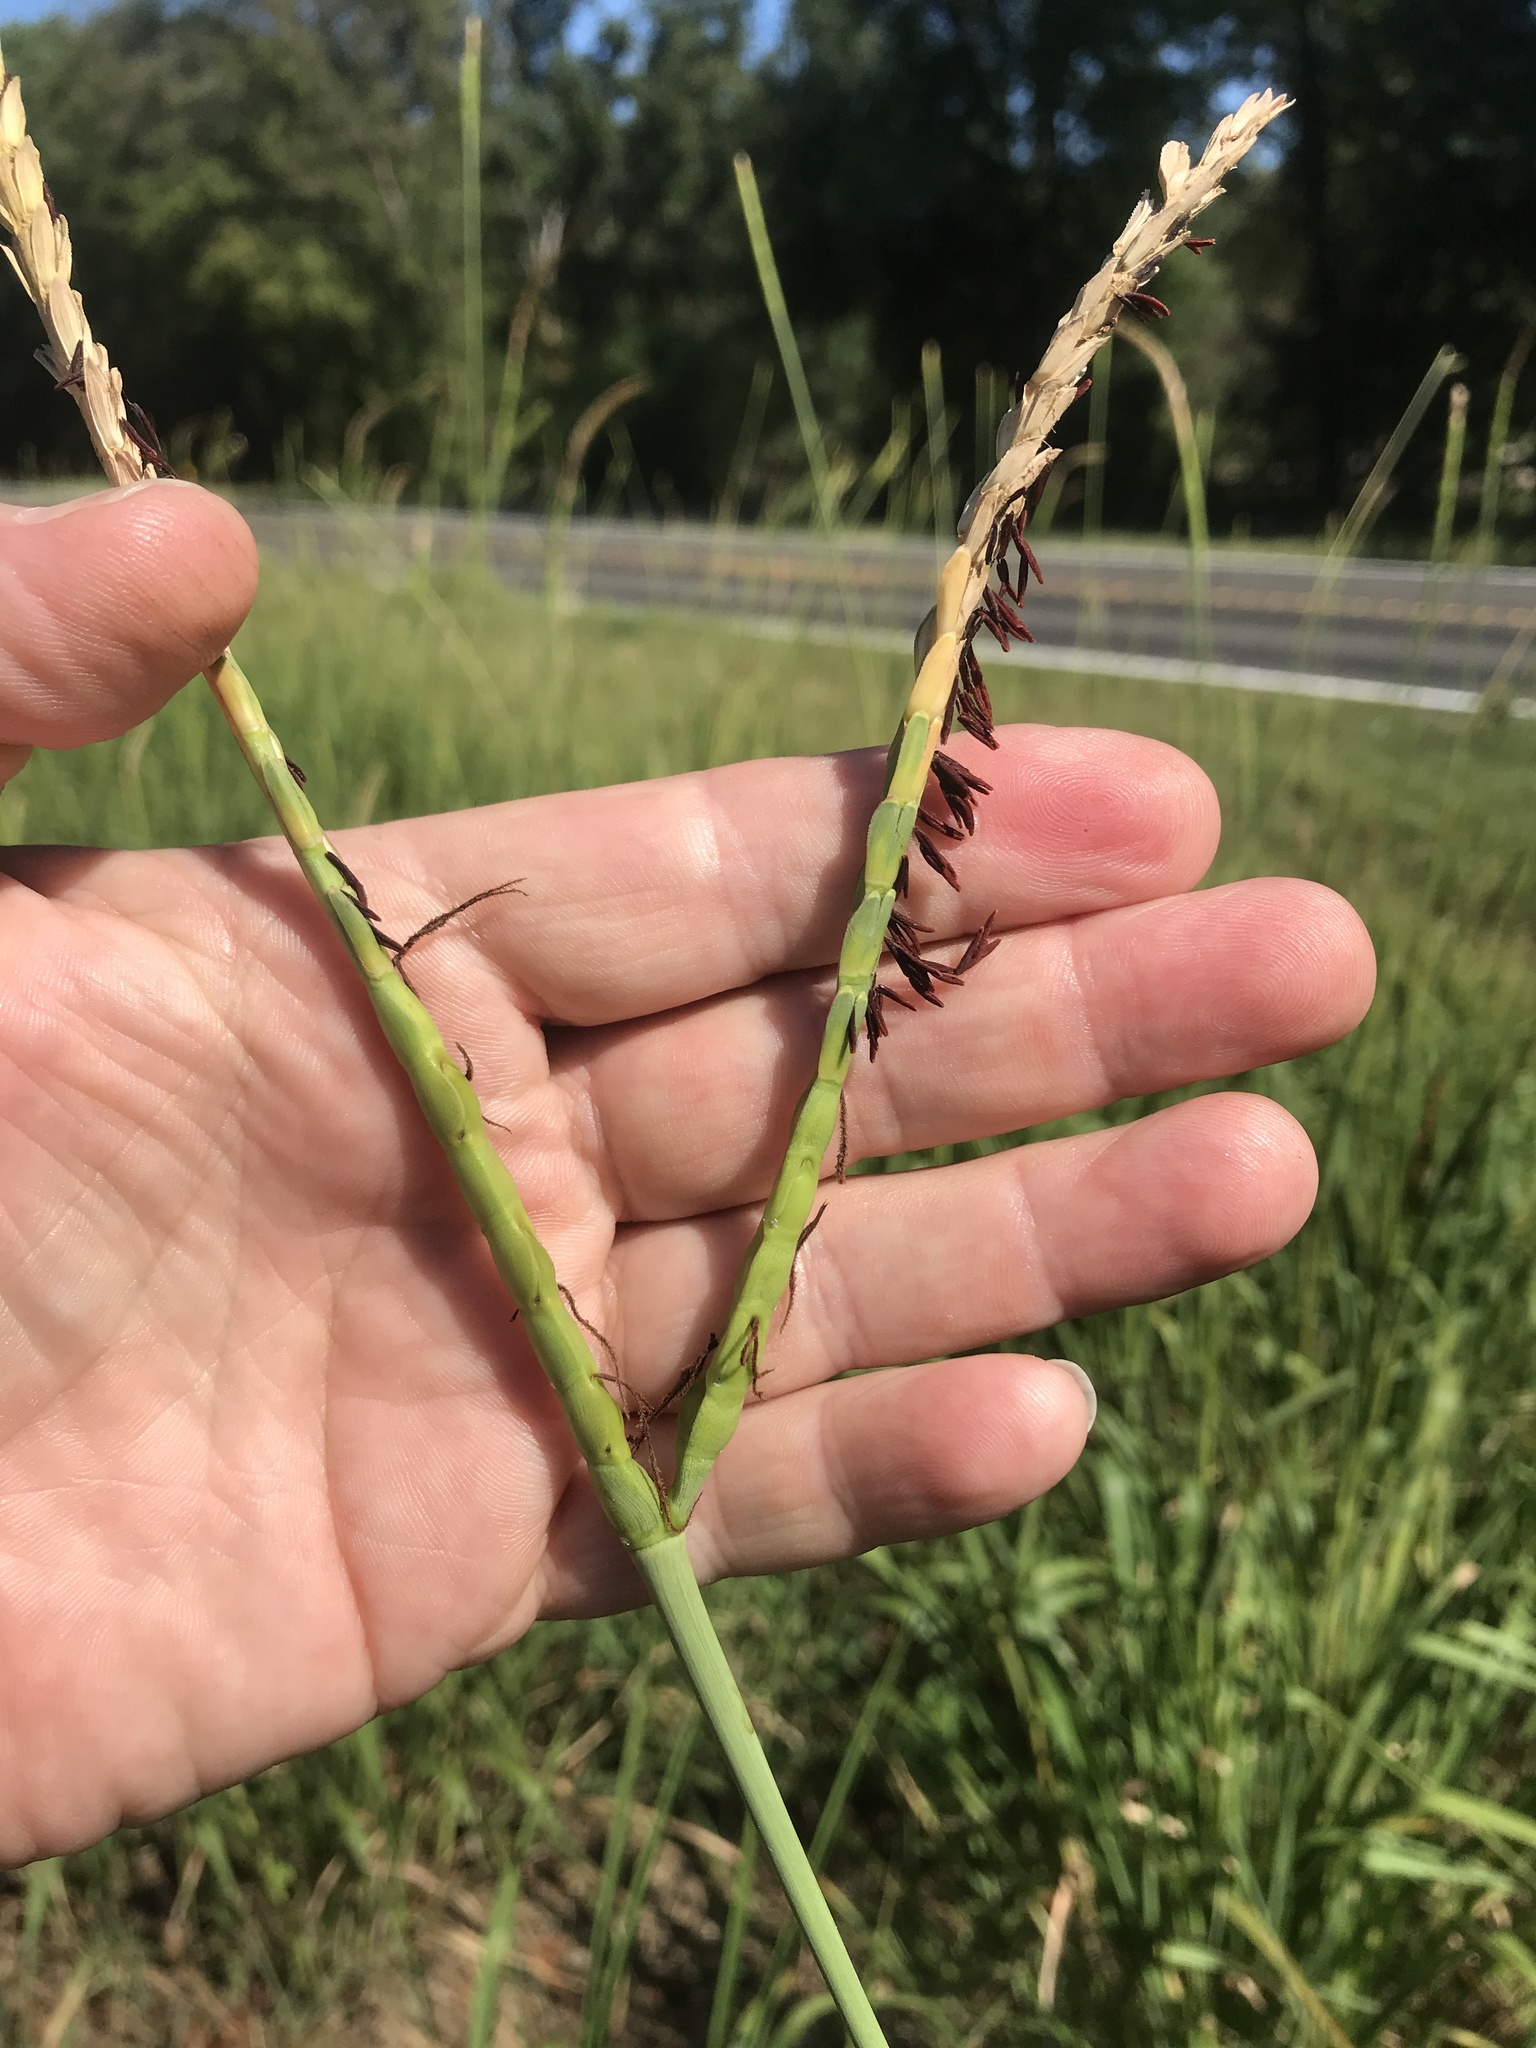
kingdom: Plantae
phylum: Tracheophyta
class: Liliopsida
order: Poales
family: Poaceae
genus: Tripsacum
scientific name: Tripsacum dactyloides
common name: Buffalo-grass
